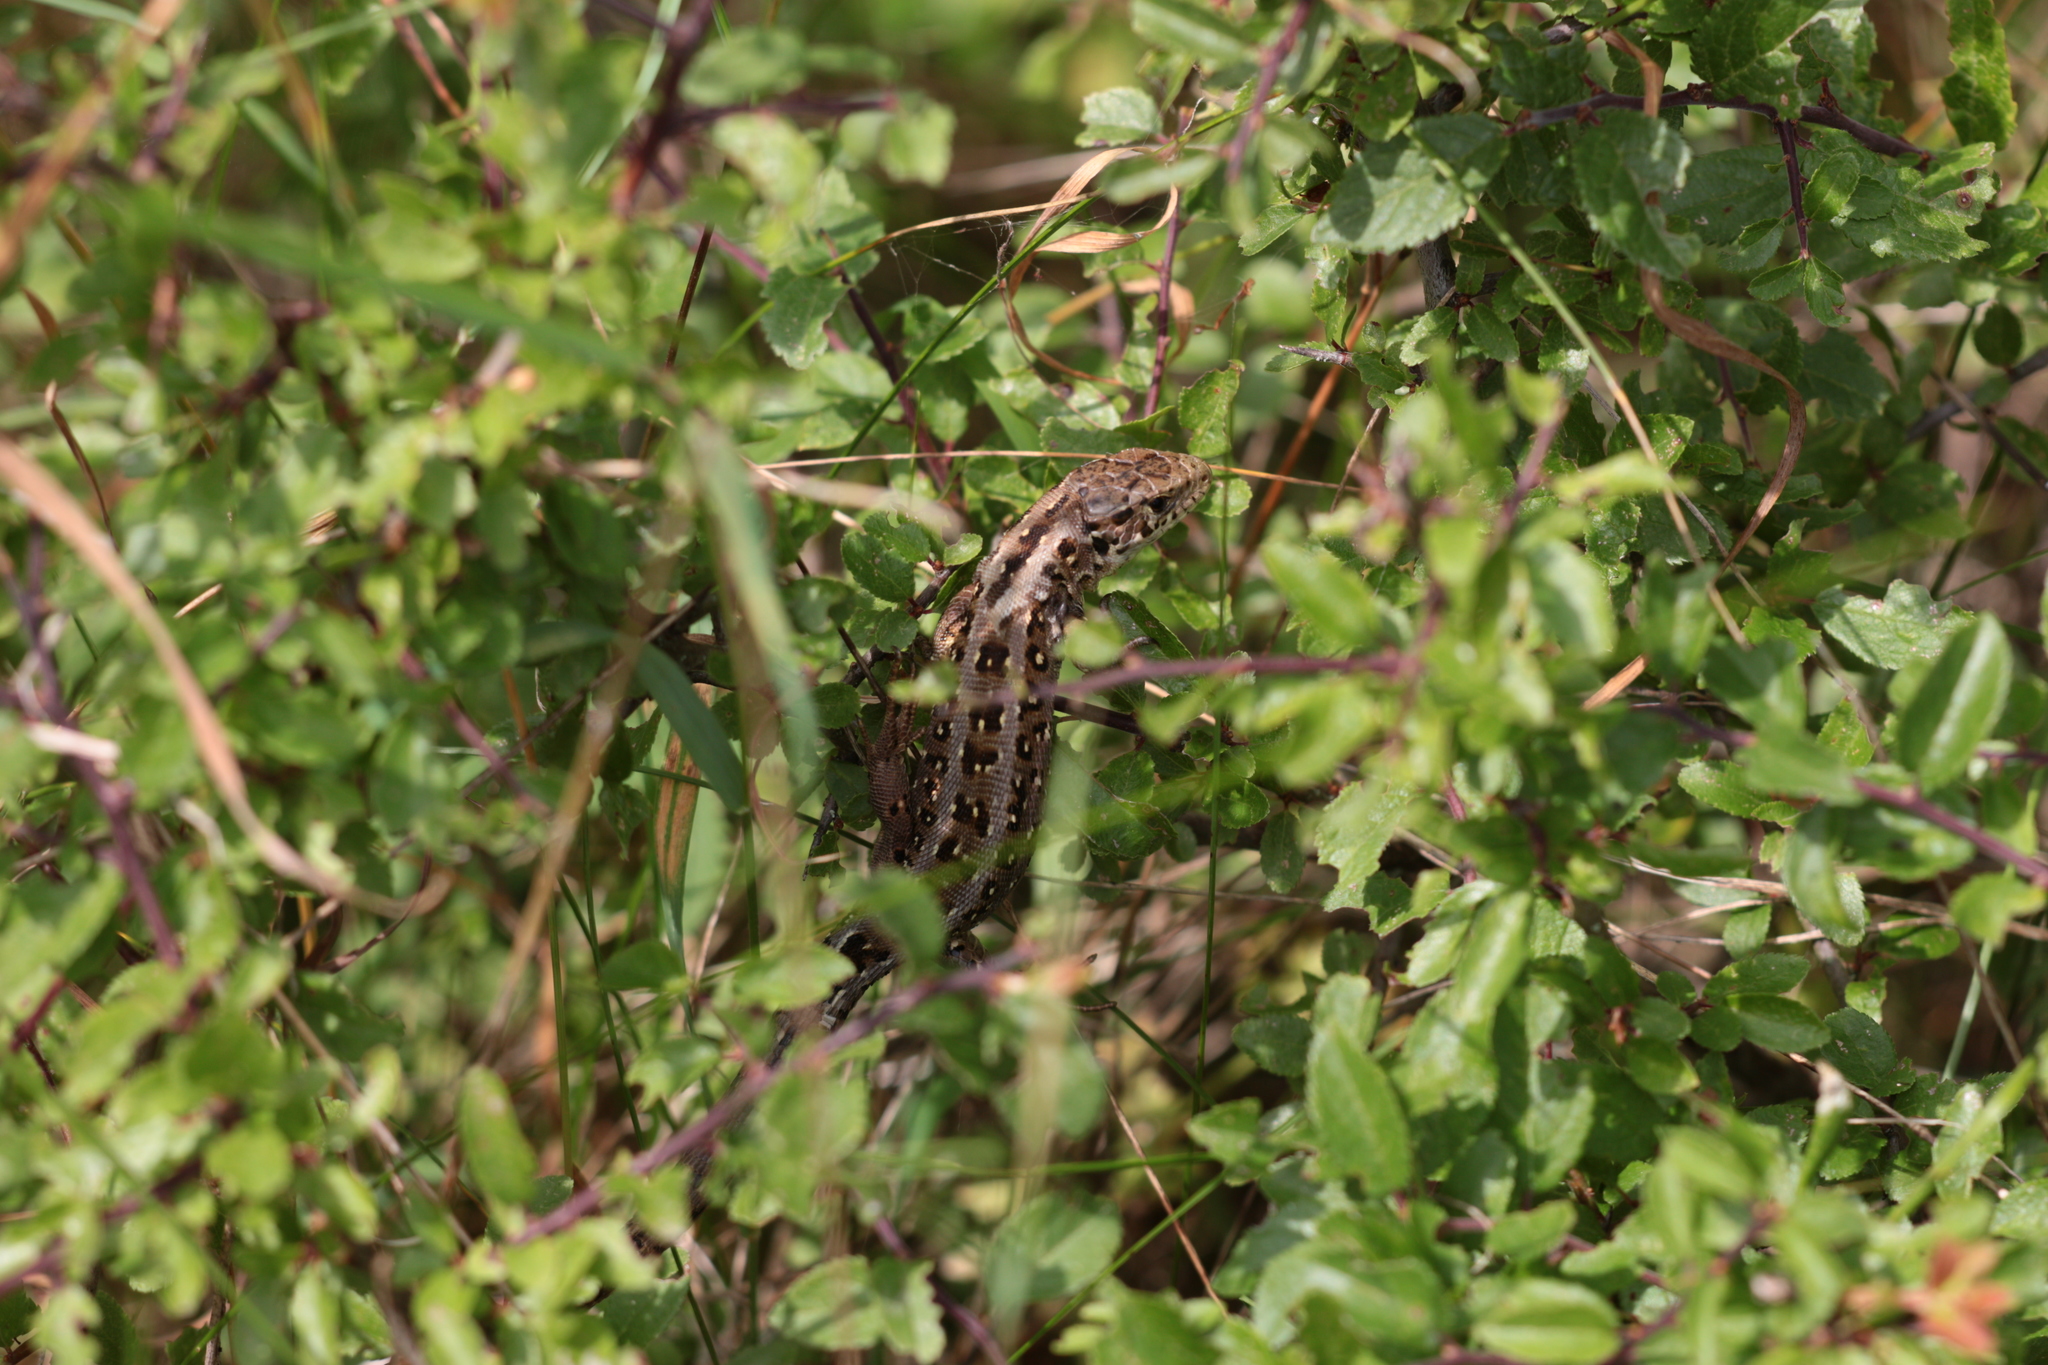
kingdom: Animalia
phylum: Chordata
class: Squamata
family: Lacertidae
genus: Lacerta
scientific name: Lacerta agilis
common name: Sand lizard
